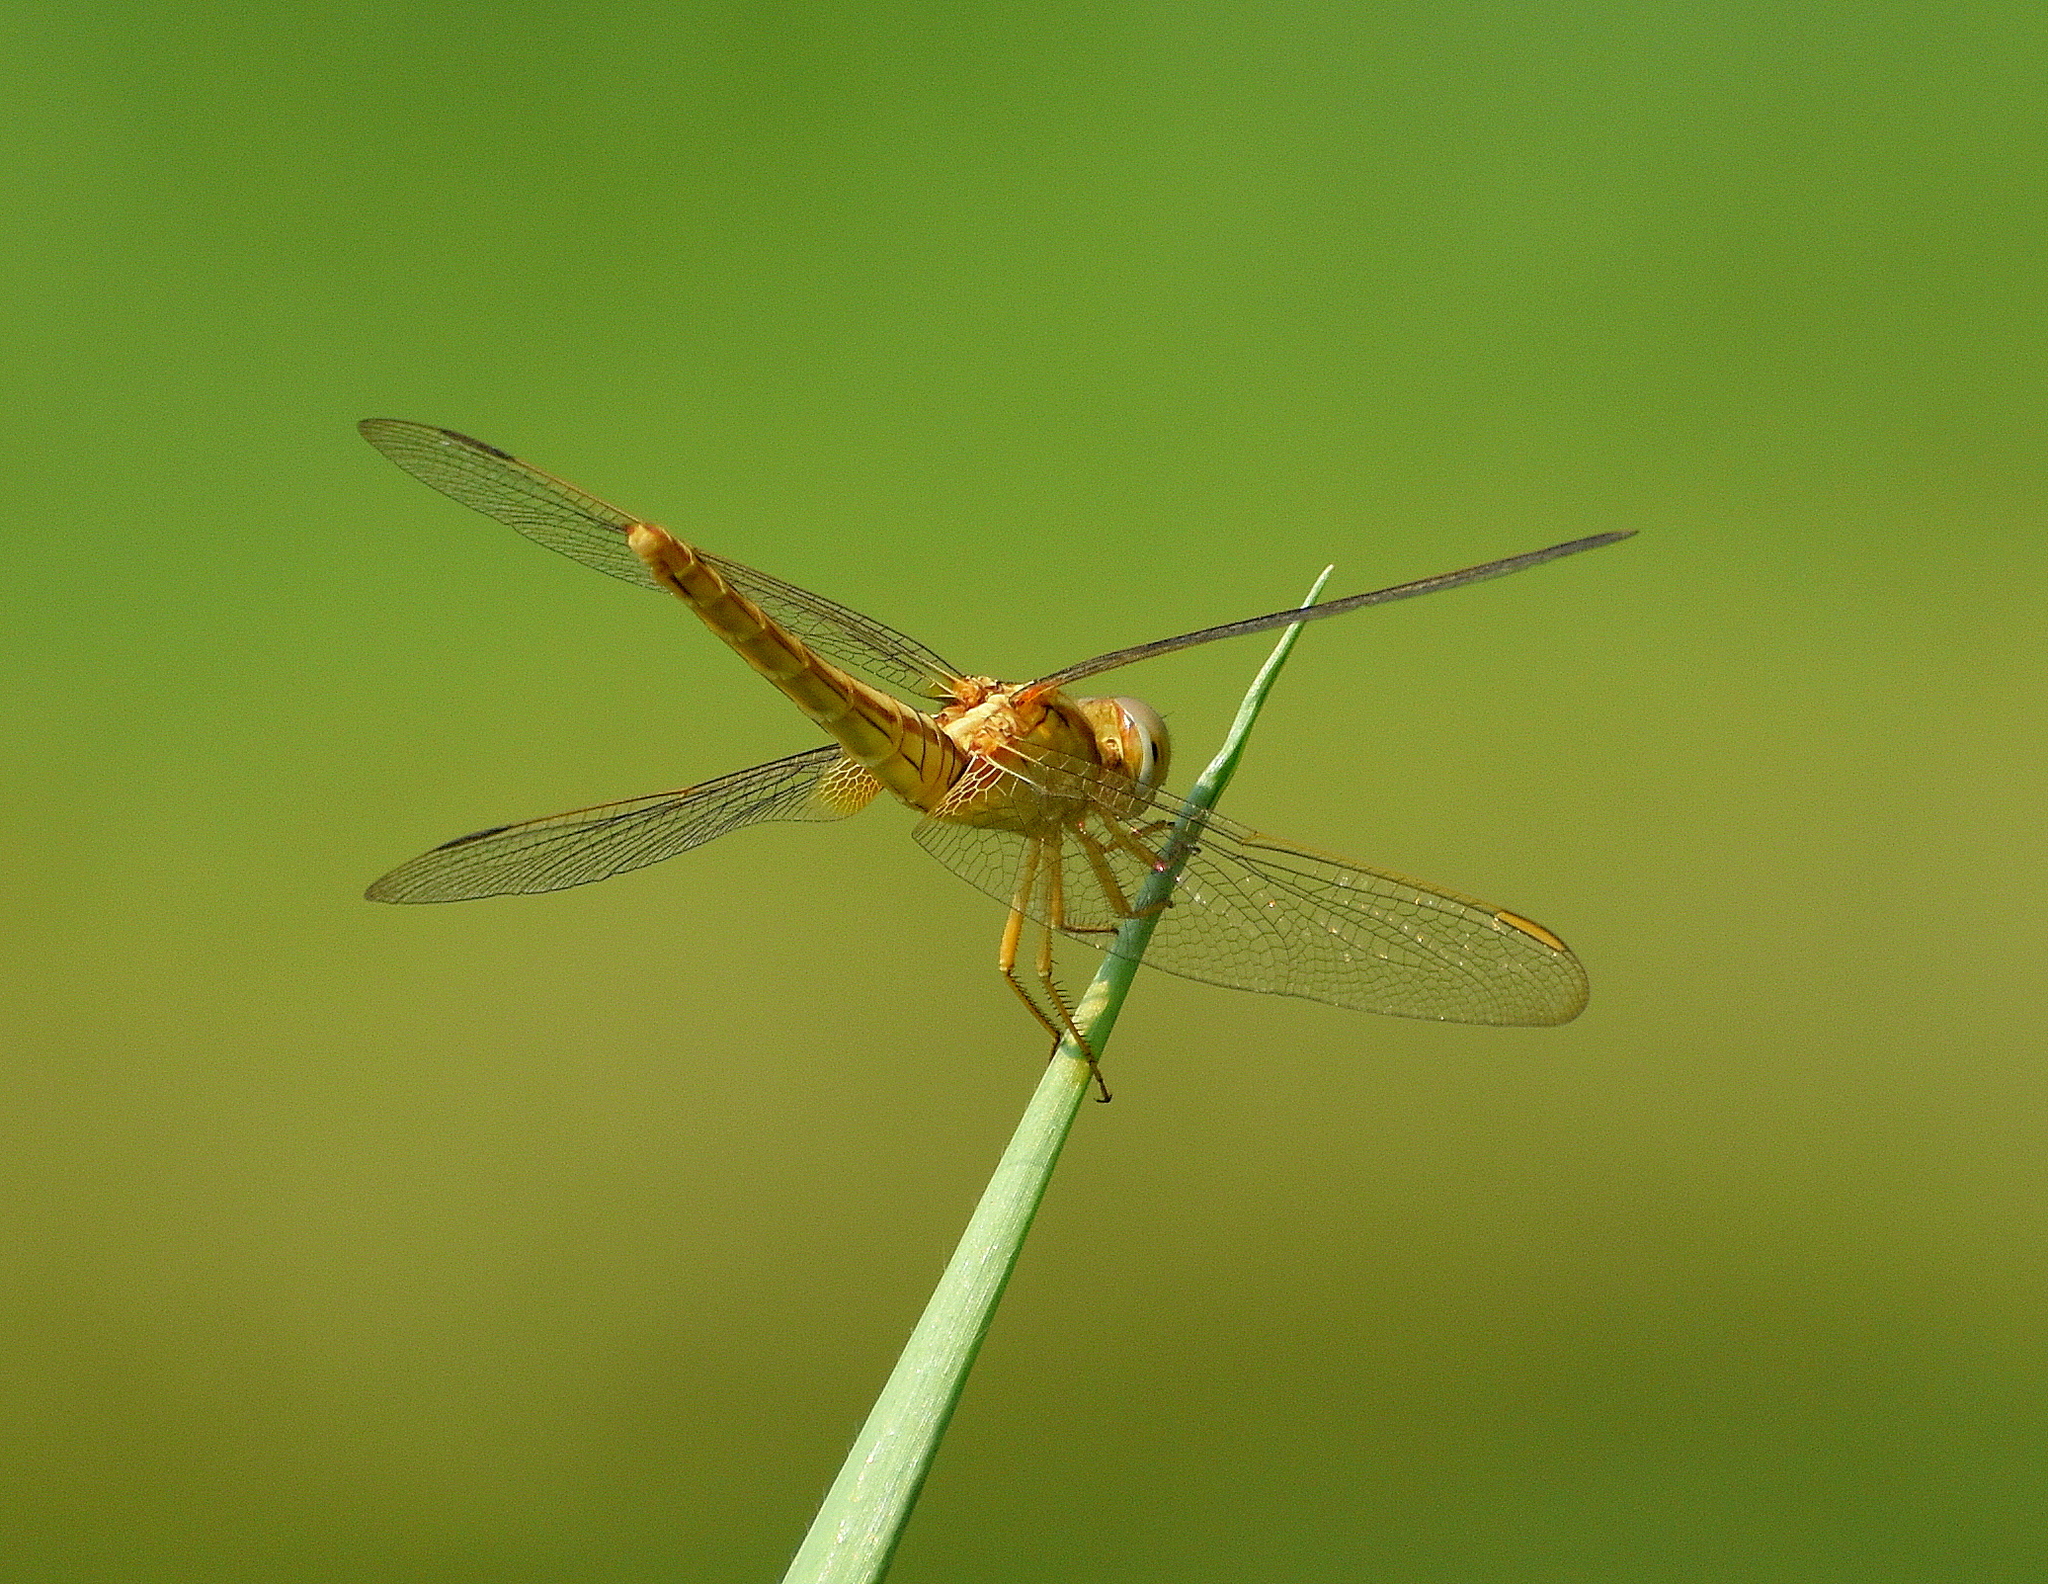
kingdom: Animalia
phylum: Arthropoda
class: Insecta
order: Odonata
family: Libellulidae
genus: Crocothemis
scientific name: Crocothemis servilia
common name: Scarlet skimmer
